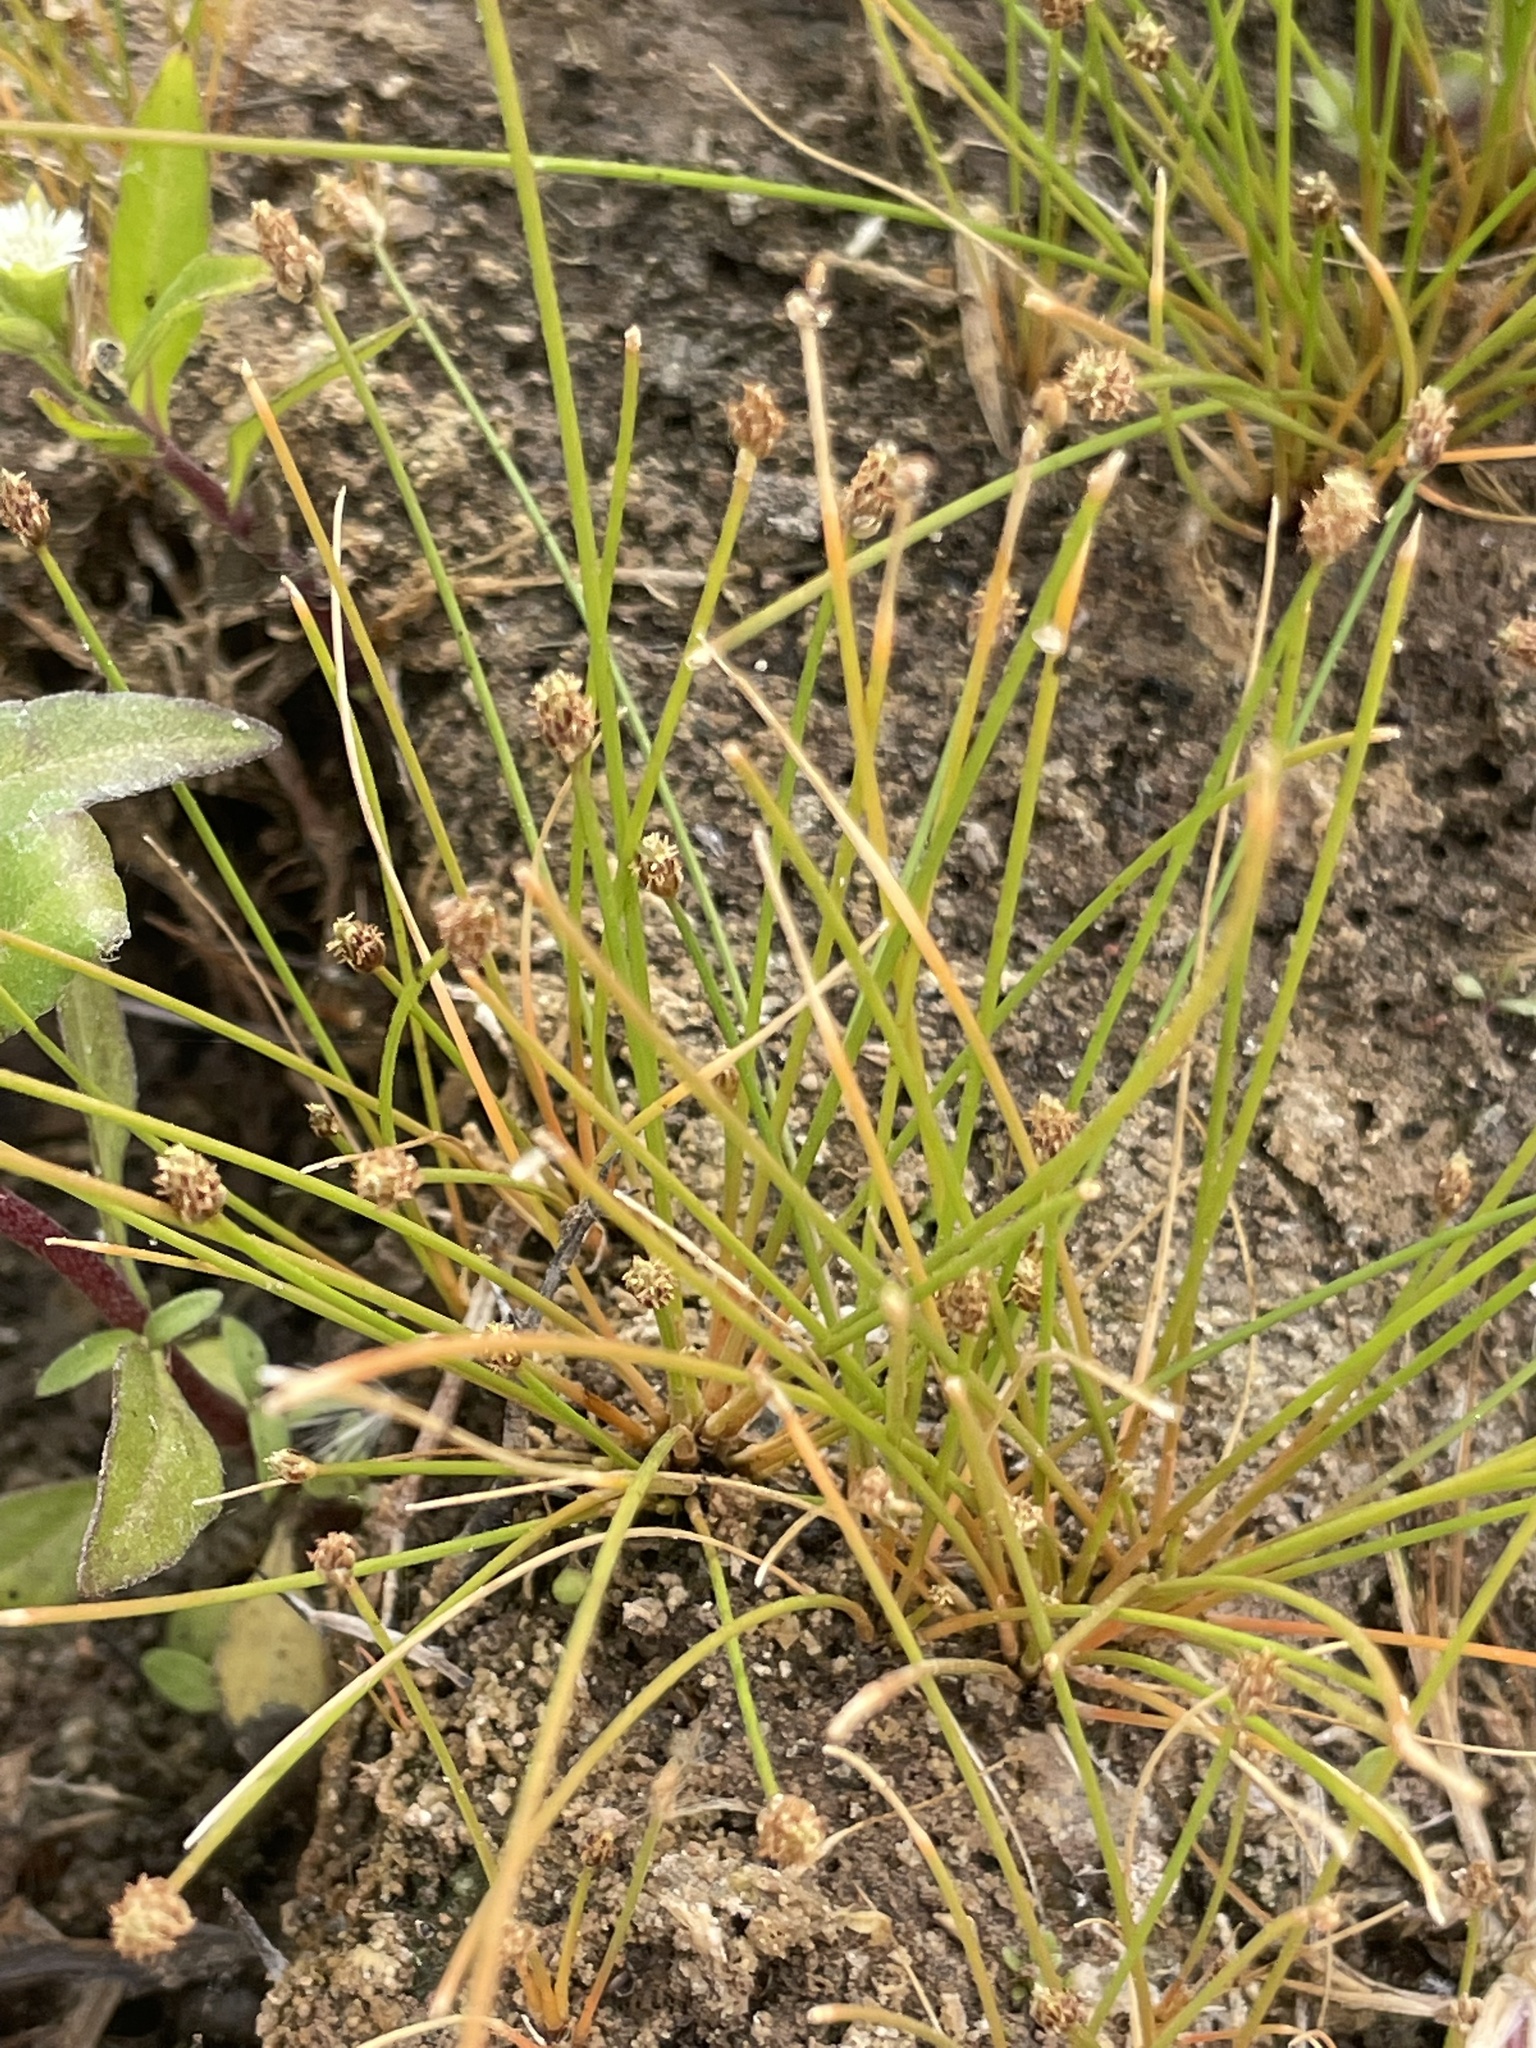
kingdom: Plantae
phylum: Tracheophyta
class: Liliopsida
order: Poales
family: Cyperaceae
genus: Eleocharis
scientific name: Eleocharis geniculata
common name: Canada spikesedge
